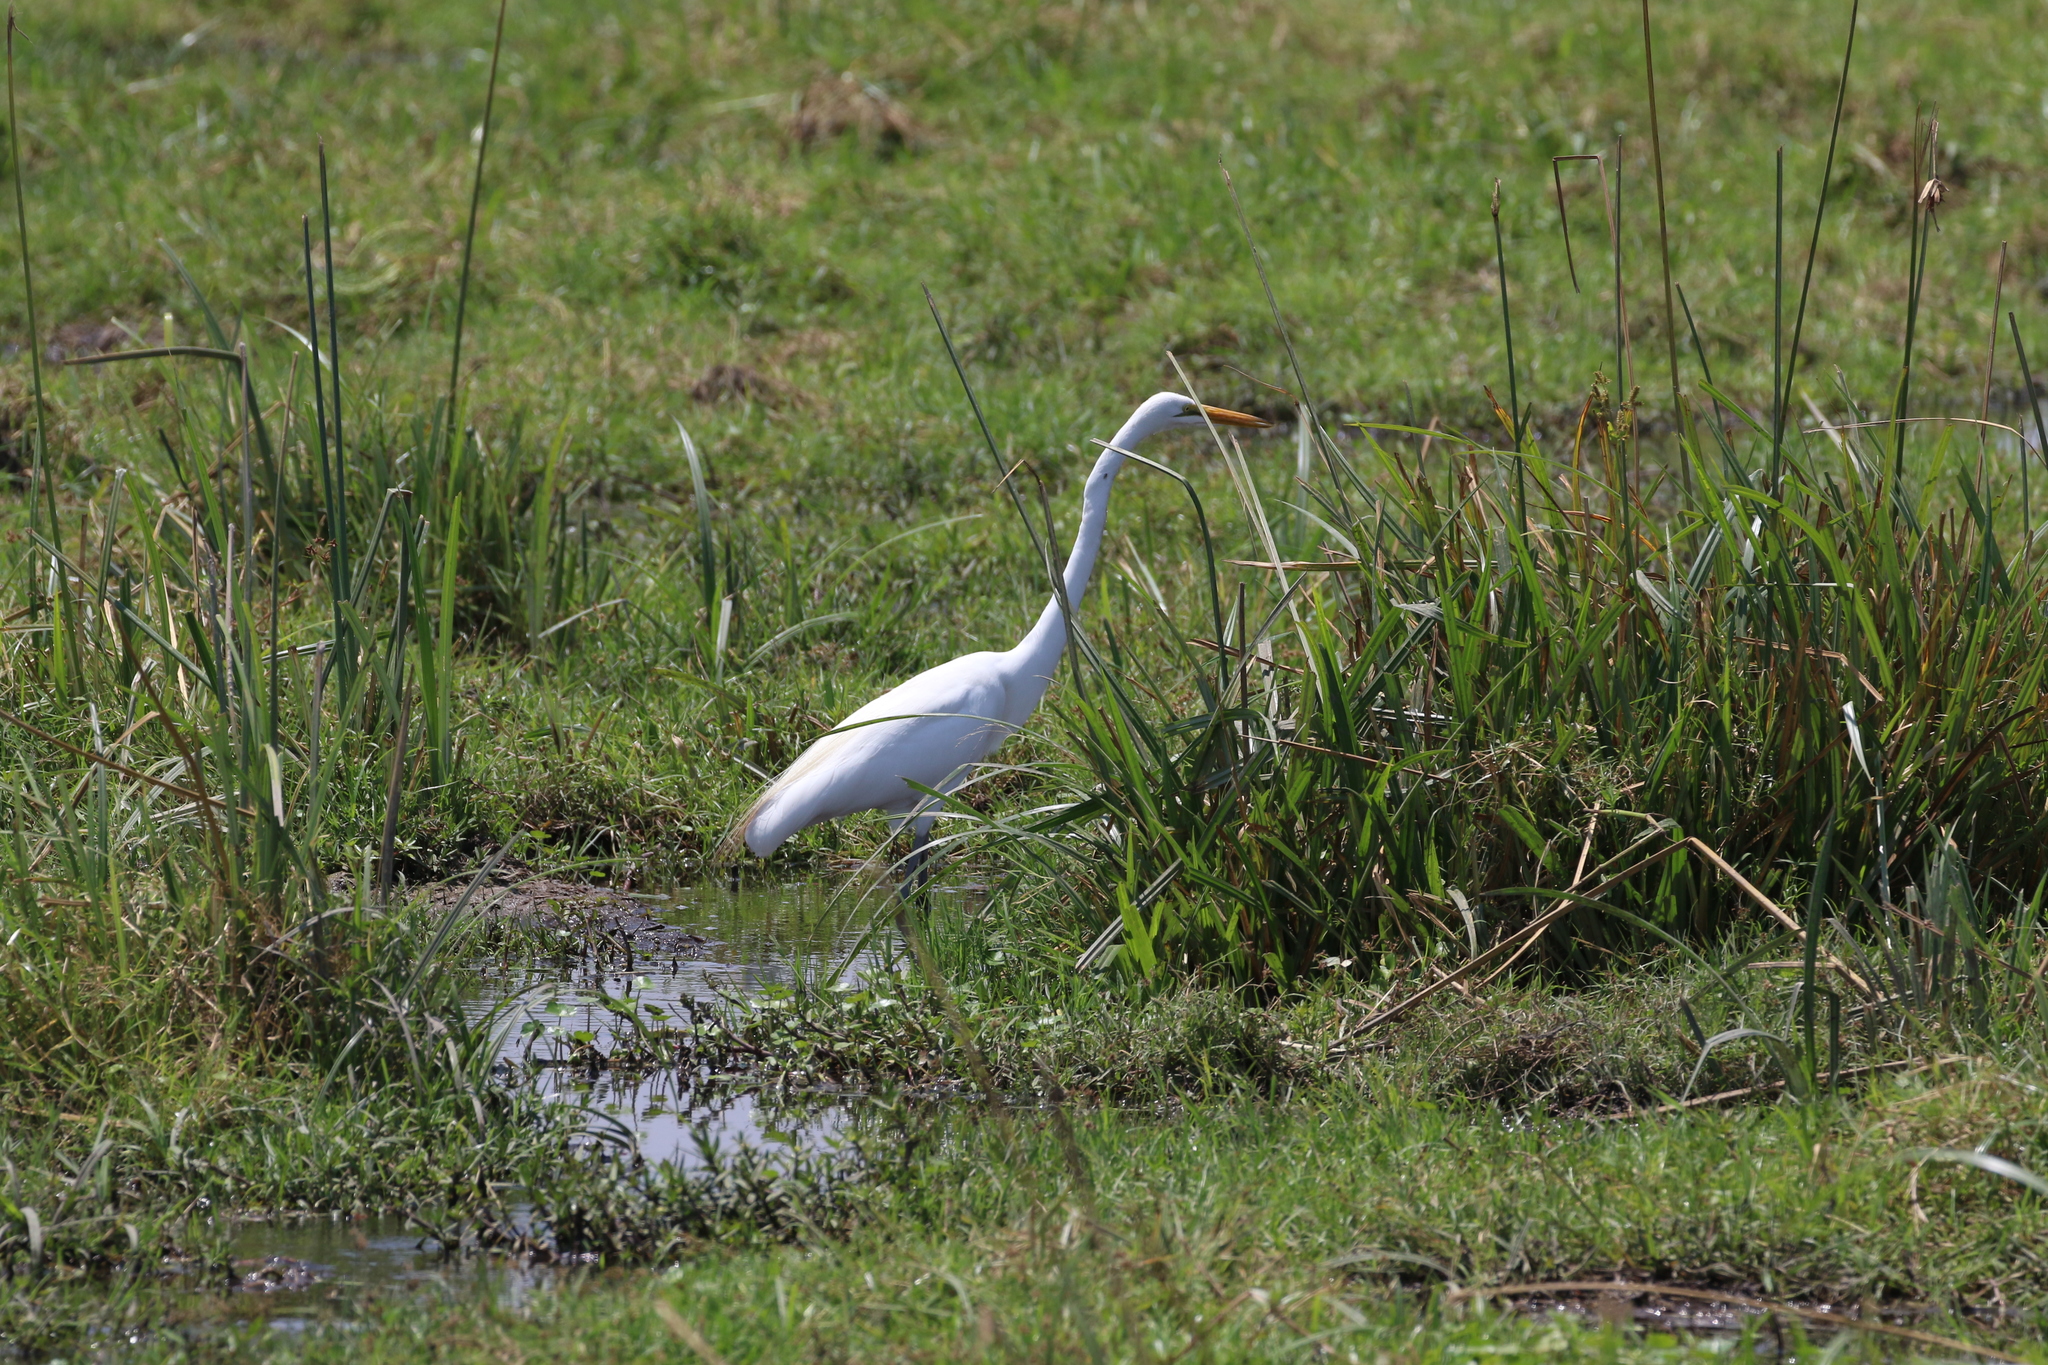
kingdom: Animalia
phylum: Chordata
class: Aves
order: Pelecaniformes
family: Ardeidae
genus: Ardea
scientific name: Ardea alba
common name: Great egret
